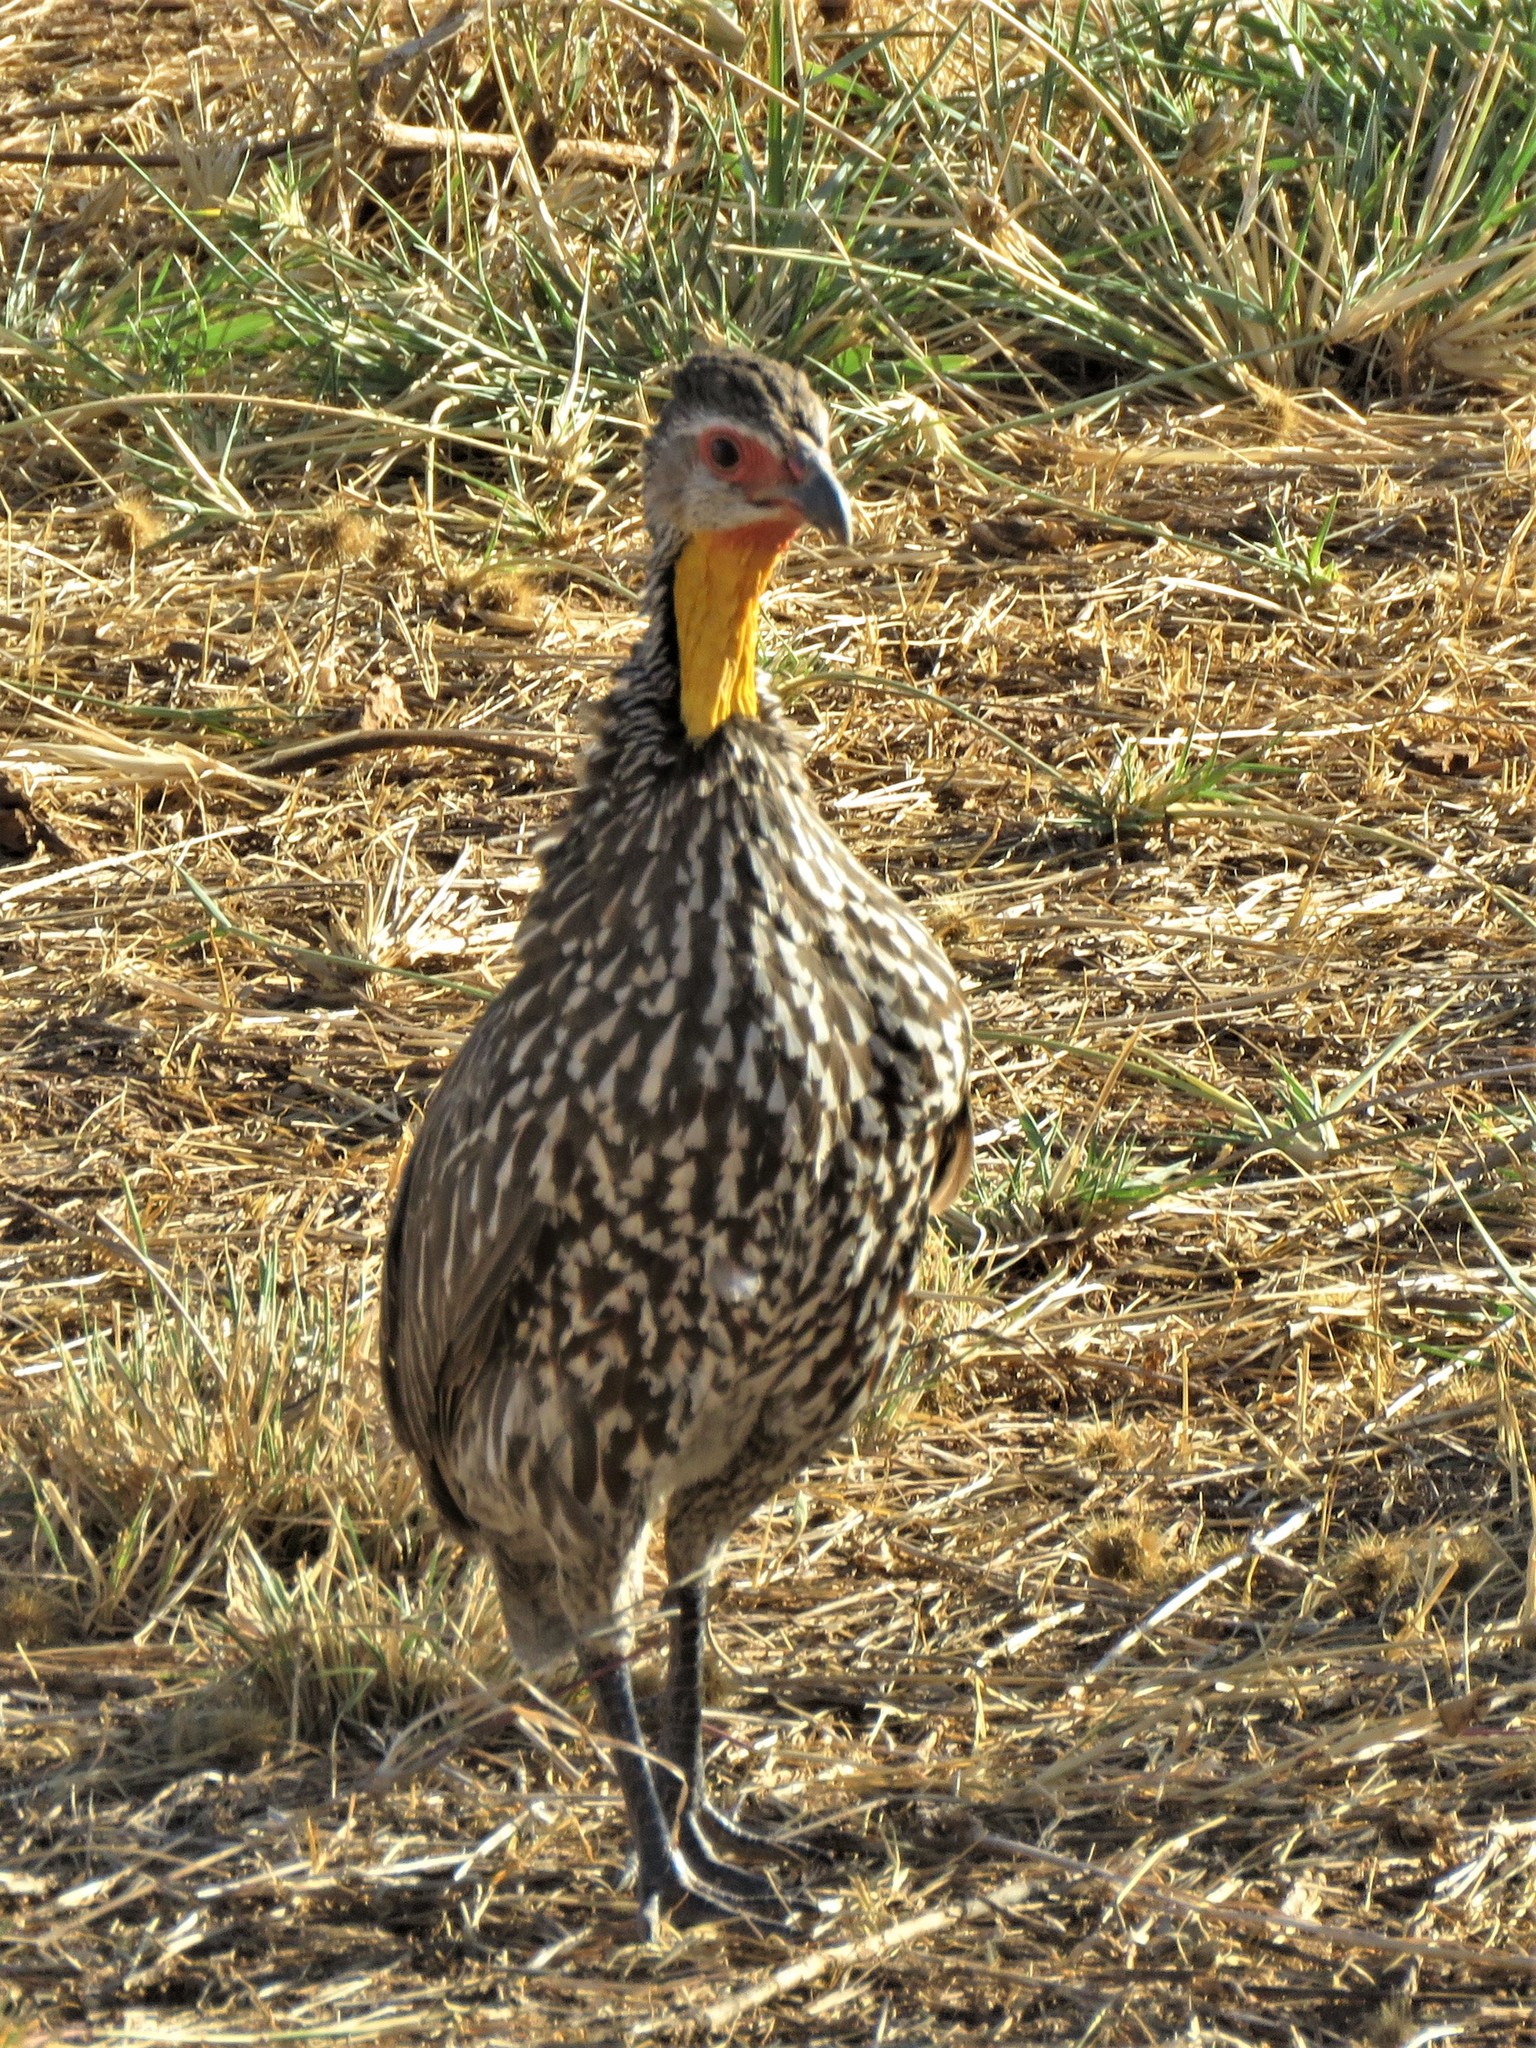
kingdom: Animalia
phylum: Chordata
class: Aves
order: Galliformes
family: Phasianidae
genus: Pternistis
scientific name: Pternistis leucoscepus
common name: Yellow-necked spurfowl
